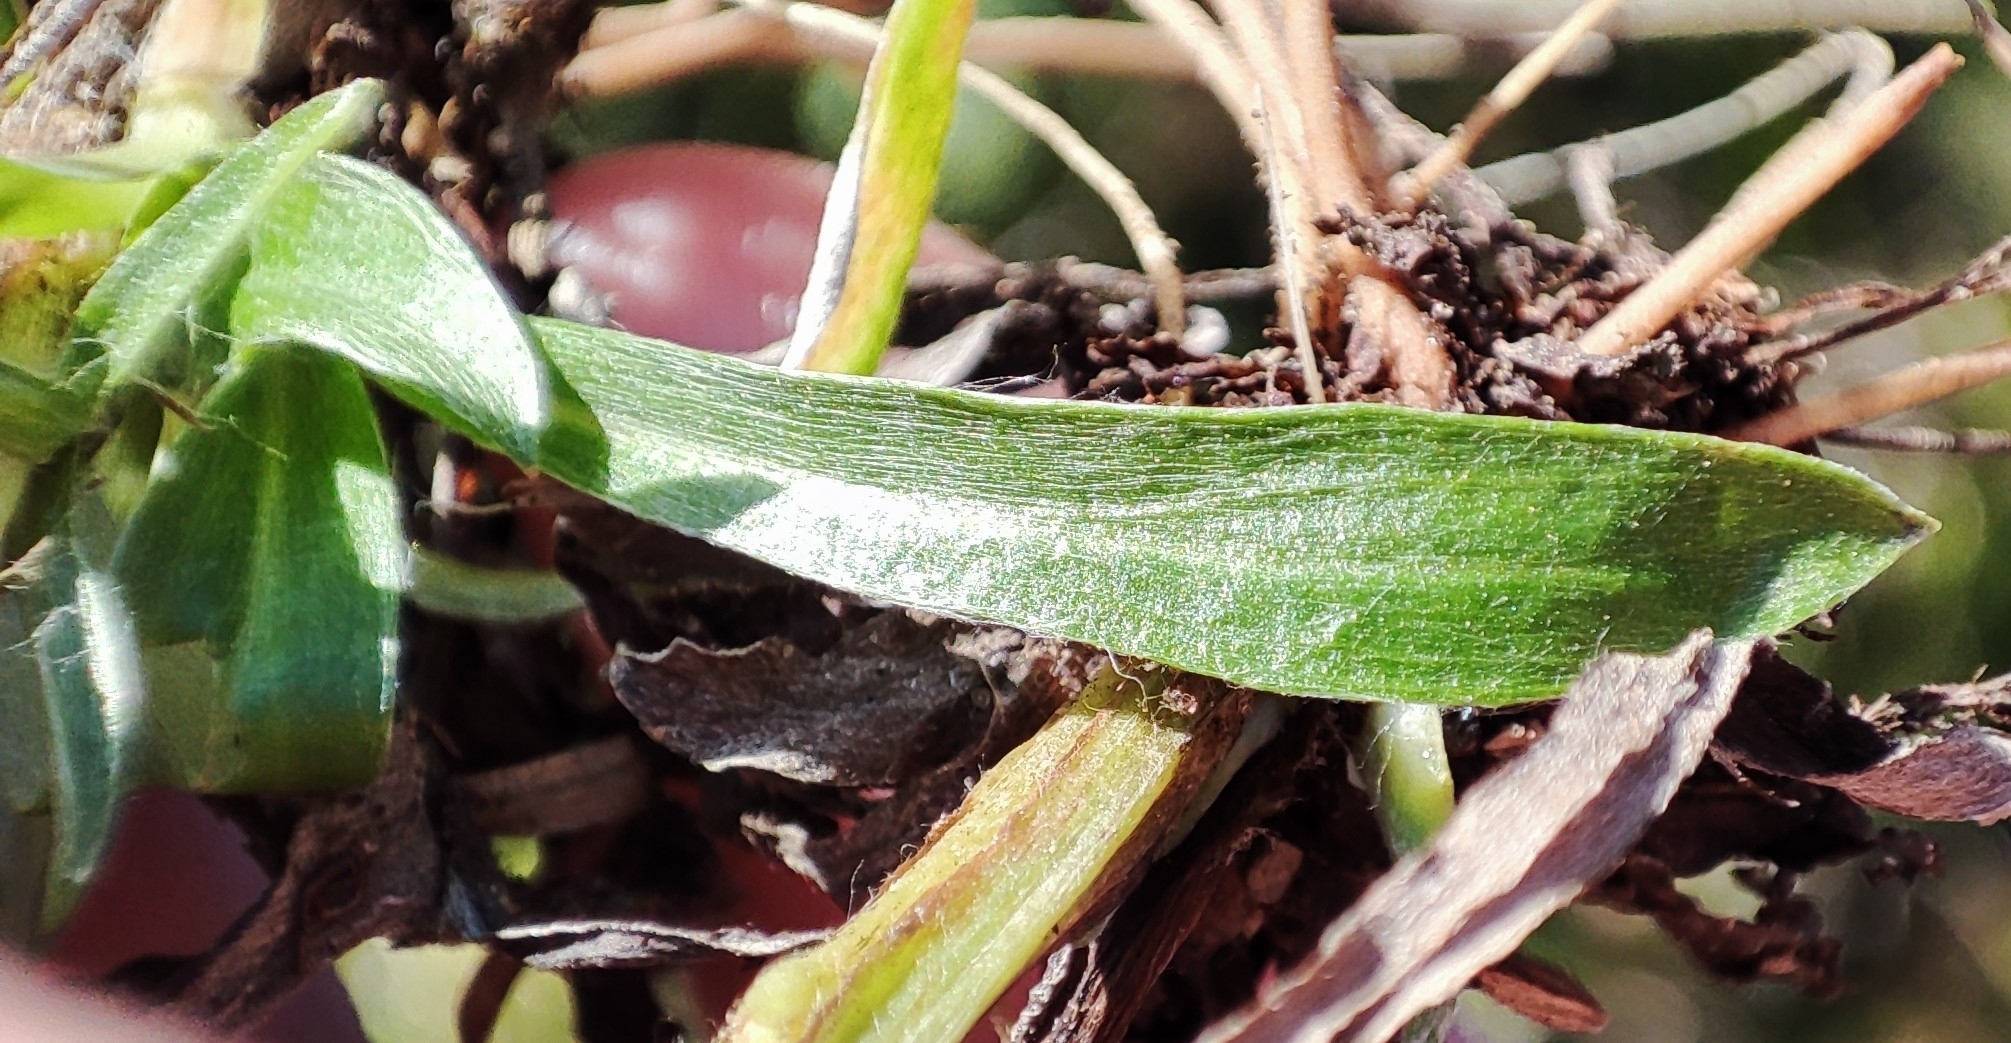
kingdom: Plantae
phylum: Tracheophyta
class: Magnoliopsida
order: Asterales
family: Asteraceae
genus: Omalotheca
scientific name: Omalotheca sylvatica
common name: Heath cudweed
